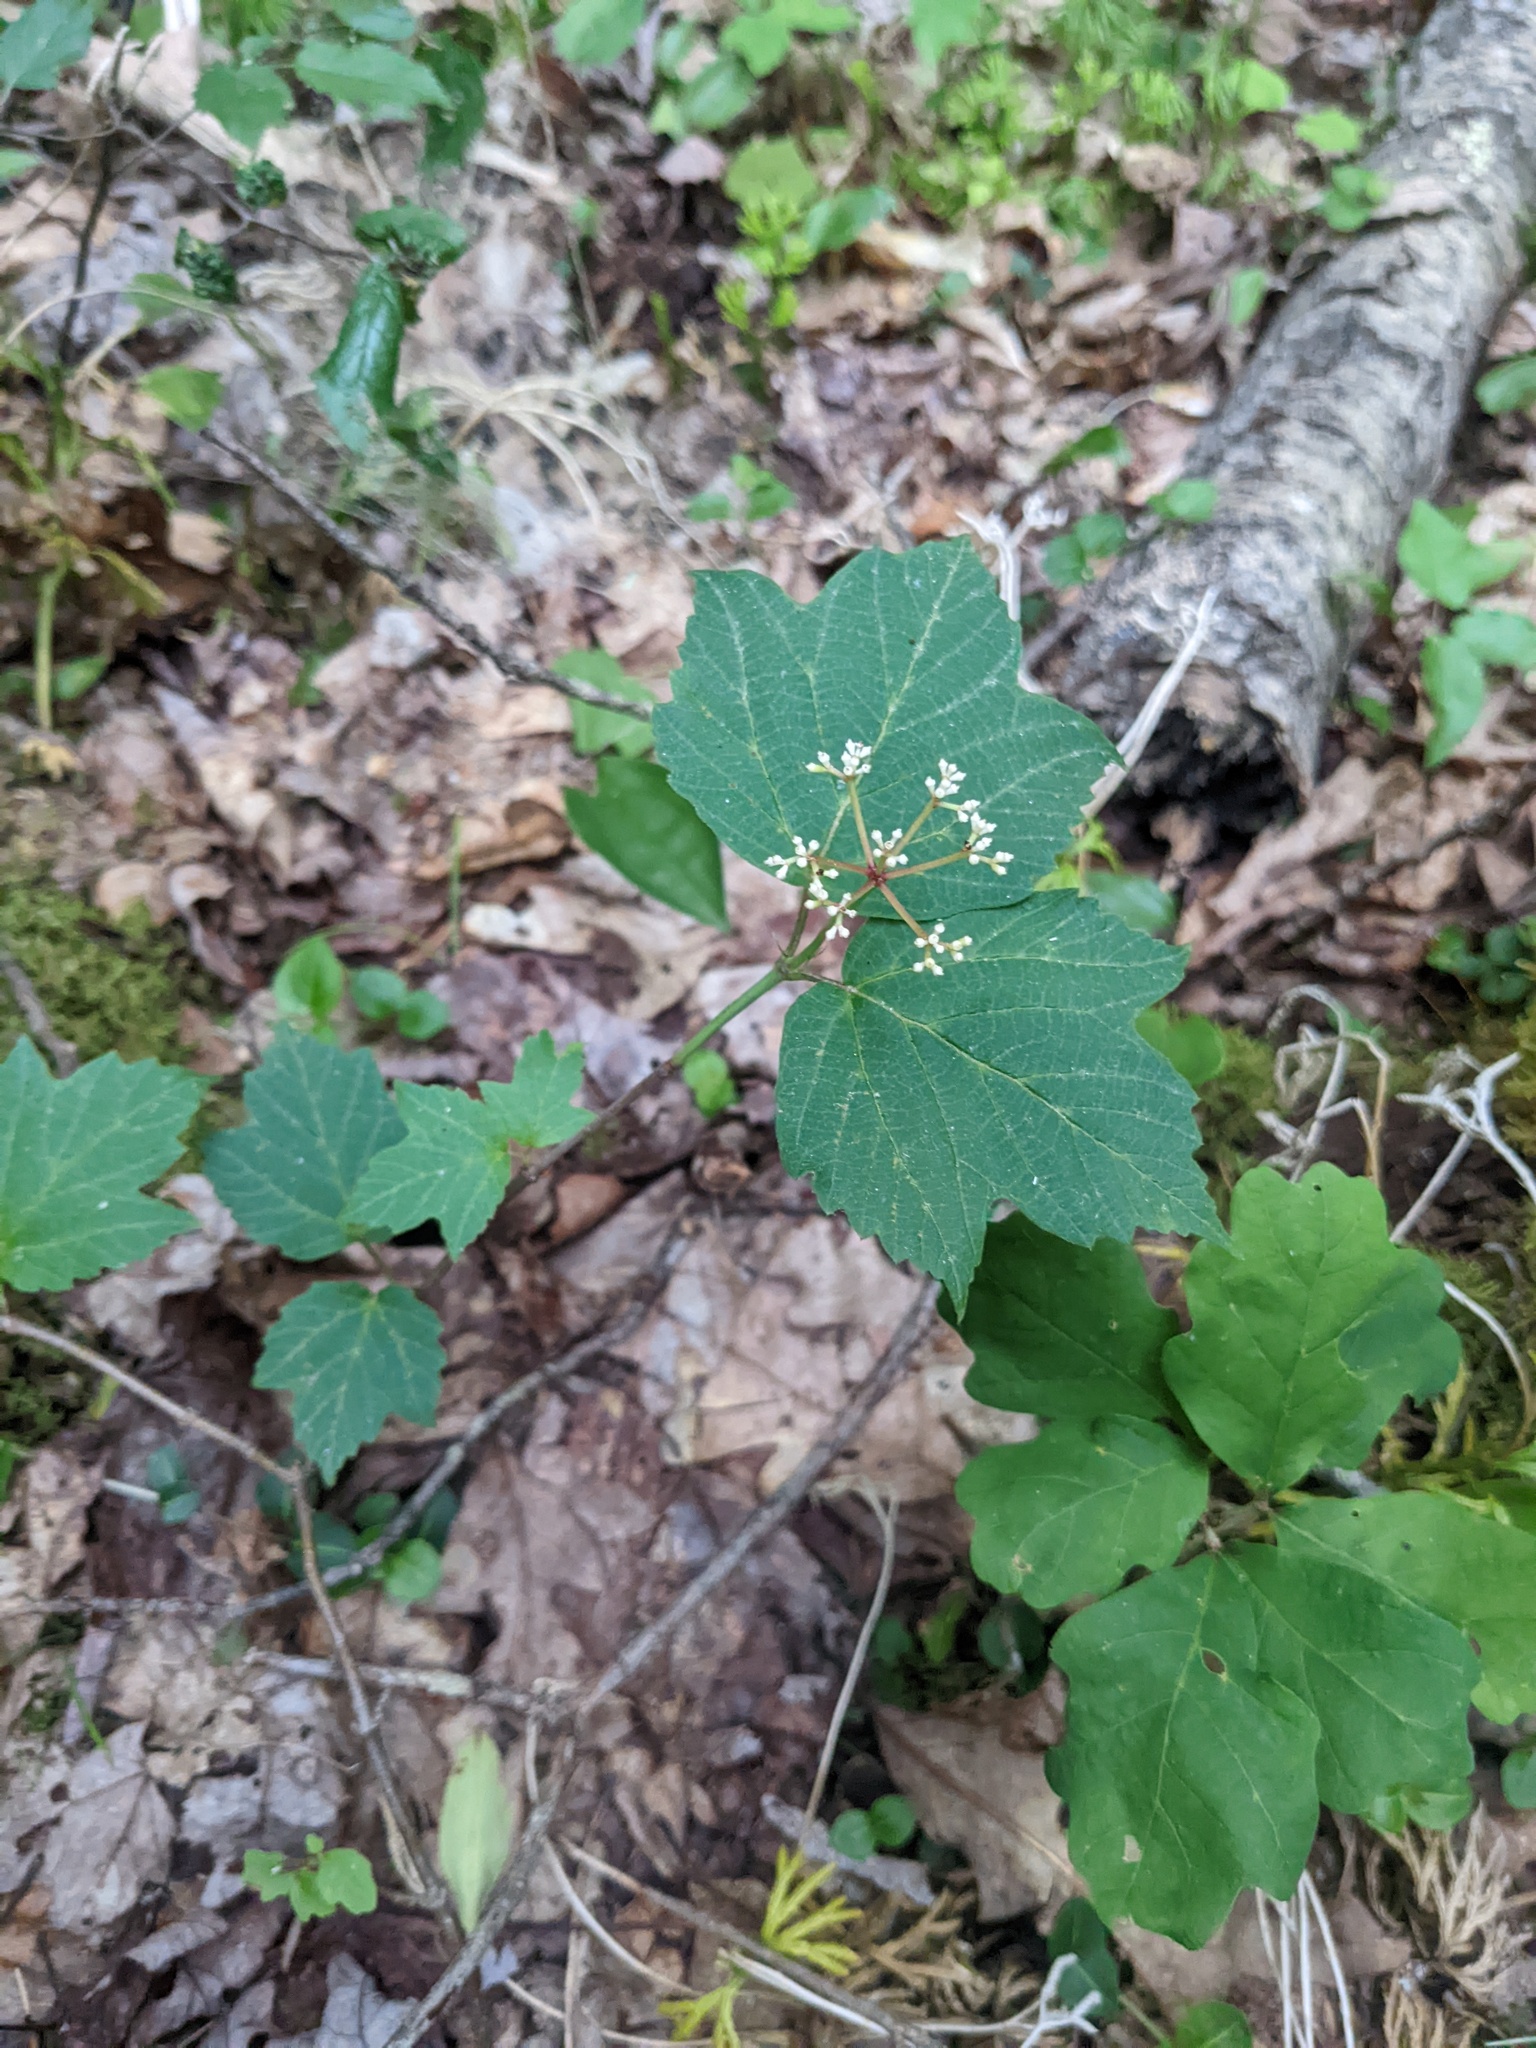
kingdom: Plantae
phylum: Tracheophyta
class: Magnoliopsida
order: Dipsacales
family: Viburnaceae
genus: Viburnum
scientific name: Viburnum acerifolium
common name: Dockmackie
